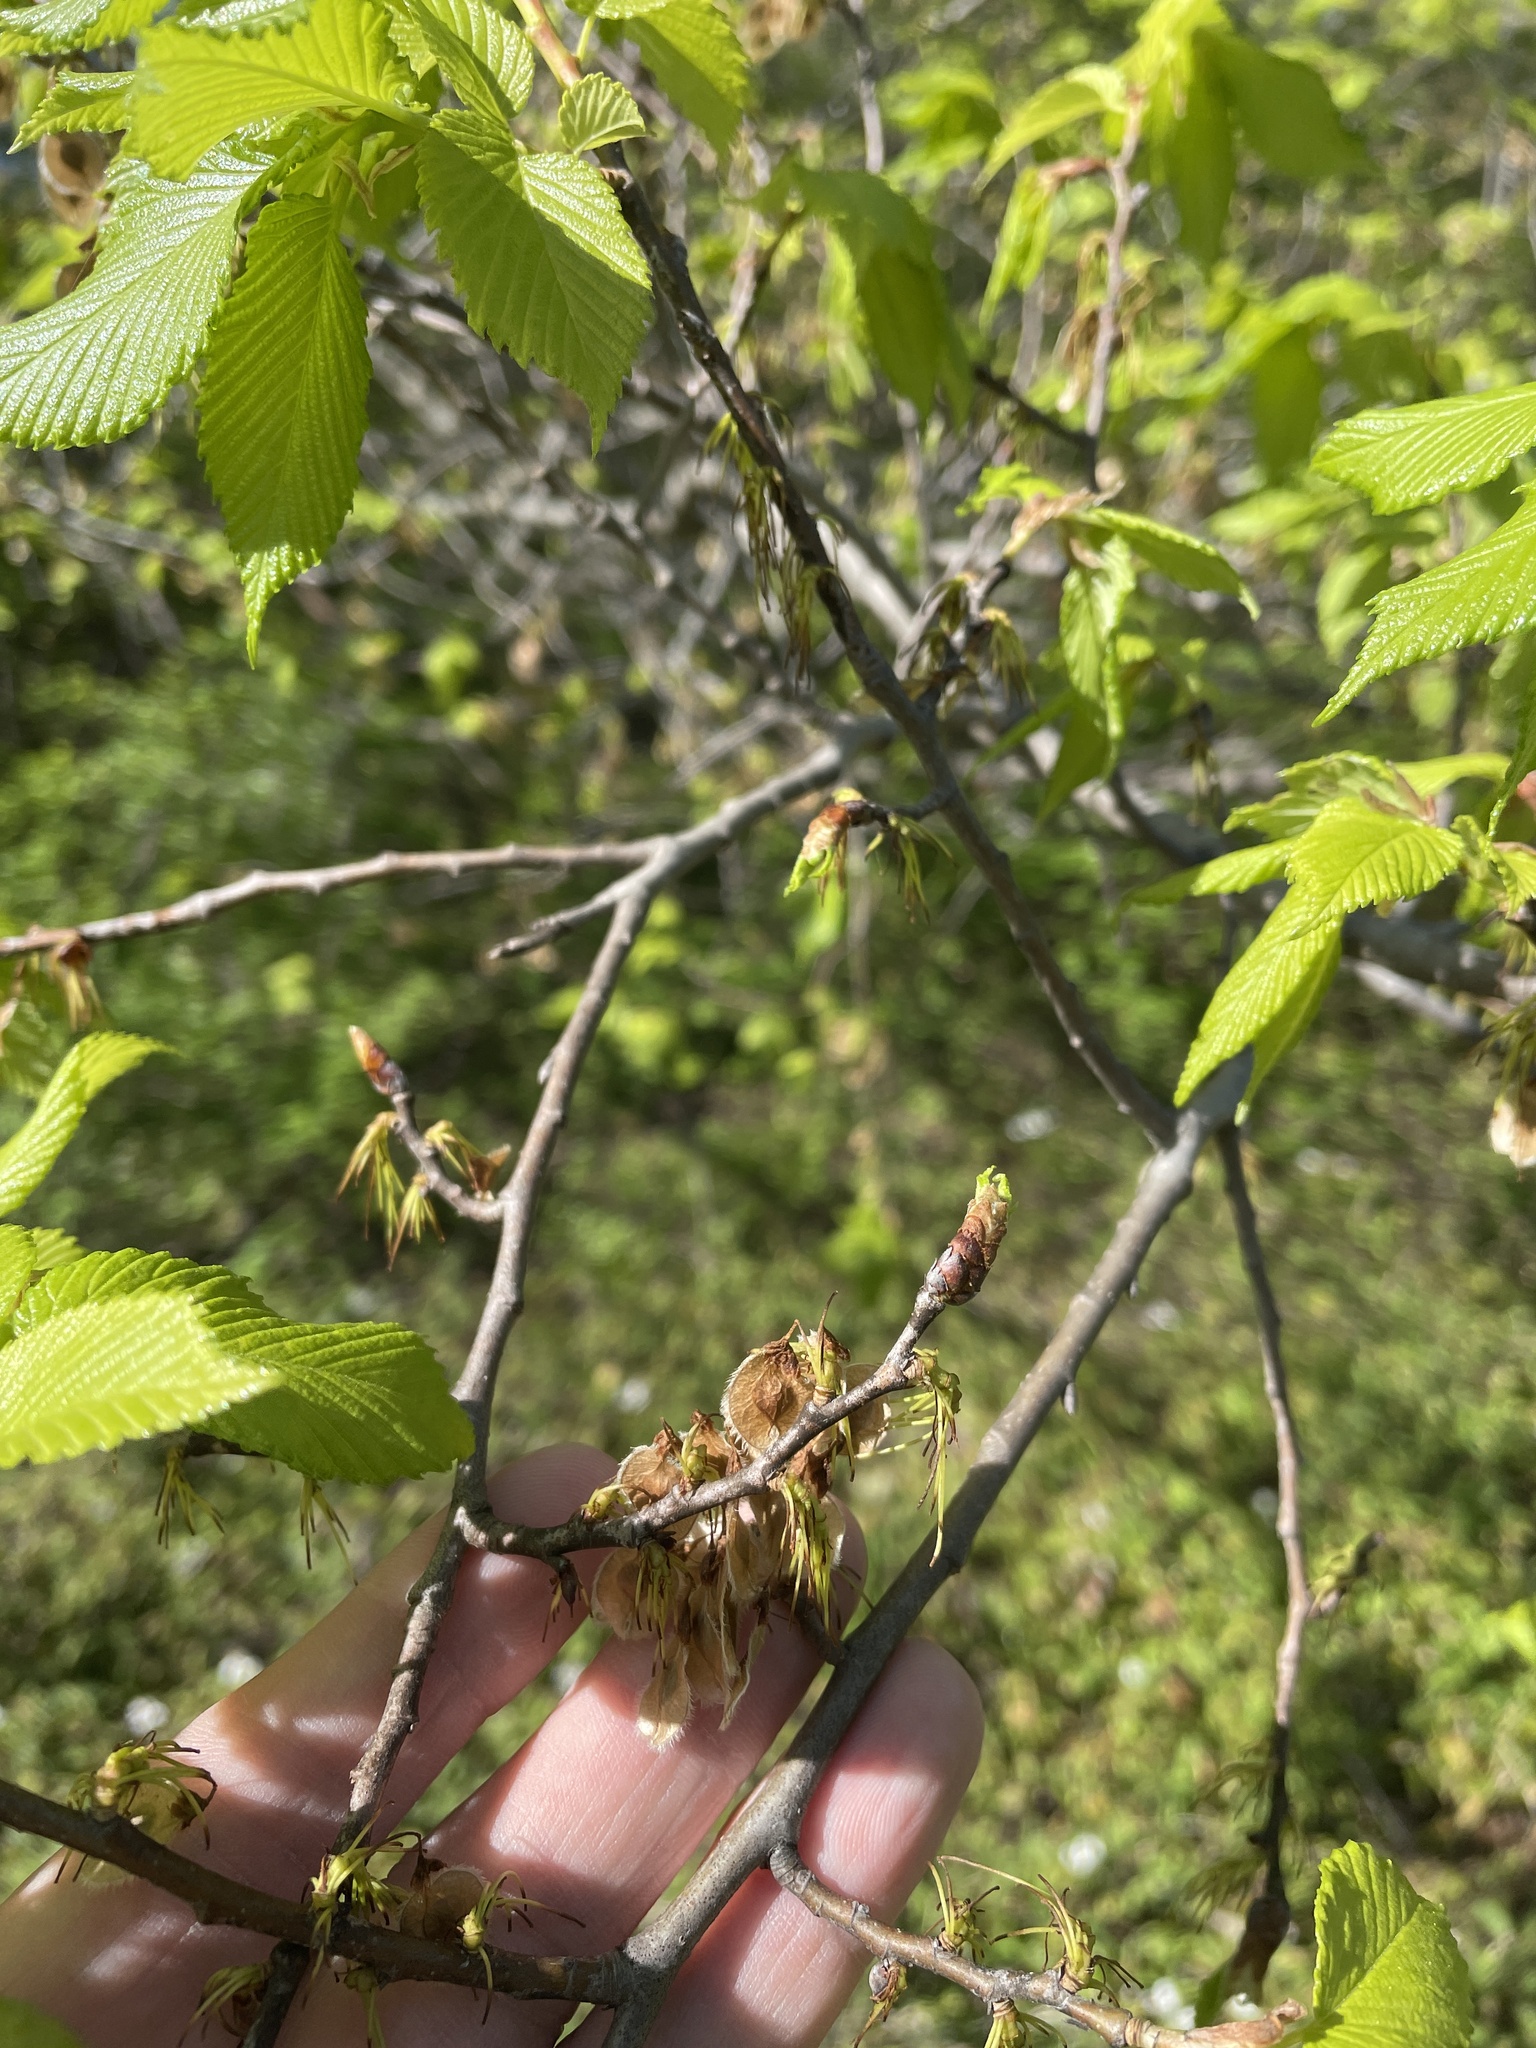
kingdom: Plantae
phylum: Tracheophyta
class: Magnoliopsida
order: Rosales
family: Ulmaceae
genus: Ulmus
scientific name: Ulmus americana
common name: American elm
